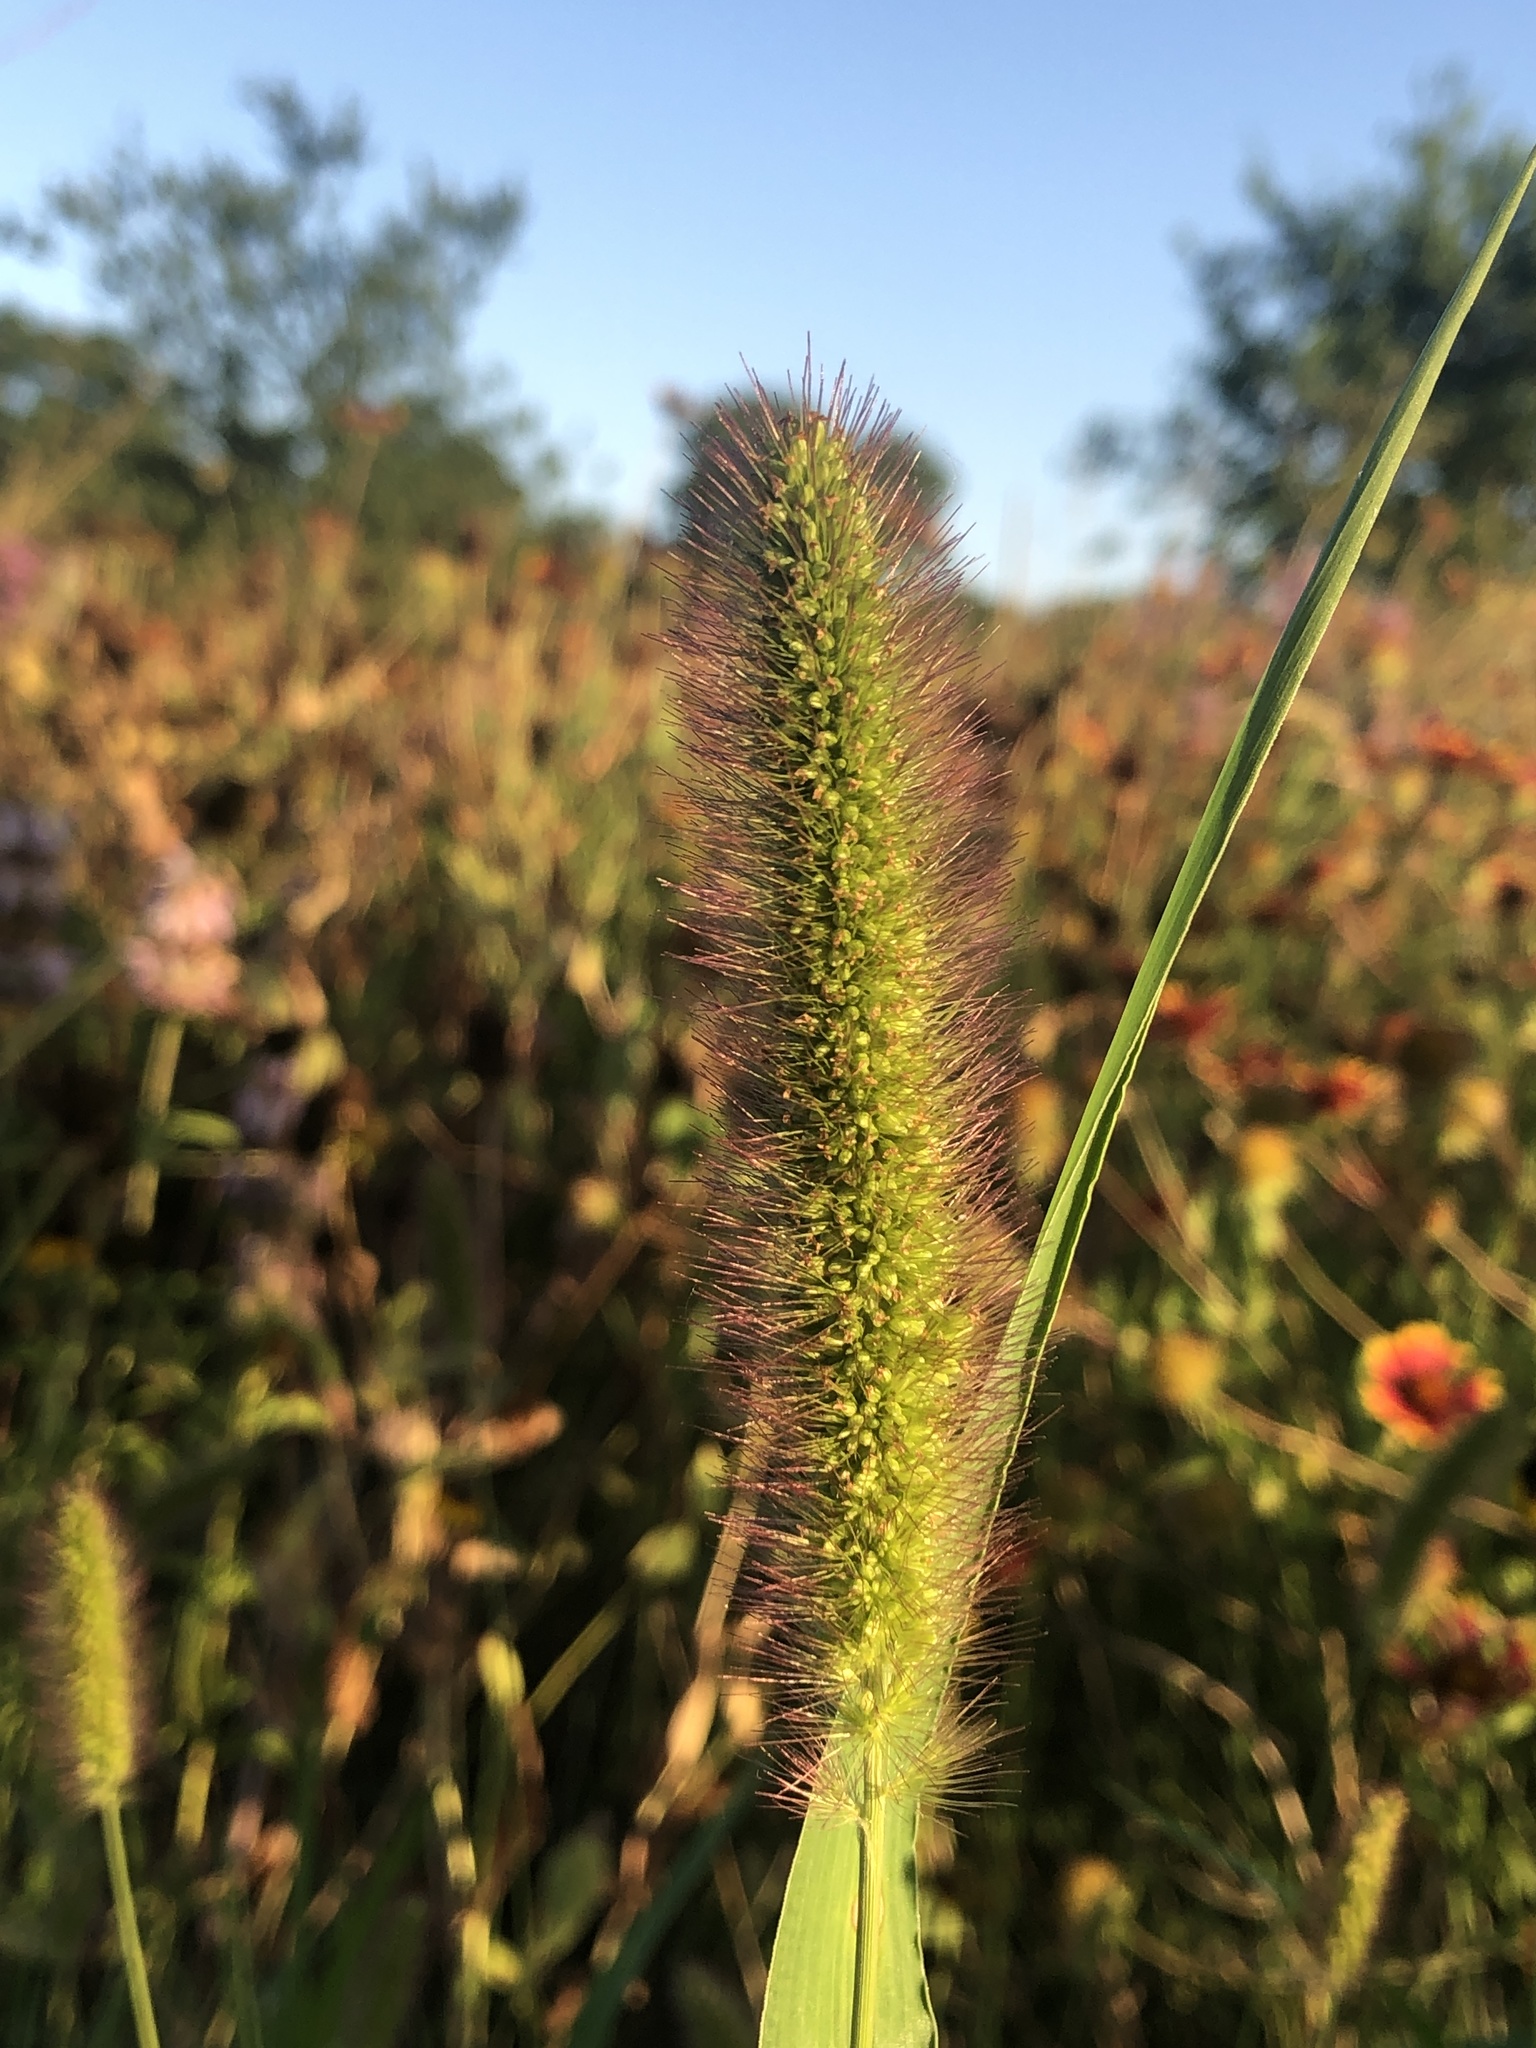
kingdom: Plantae
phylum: Tracheophyta
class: Liliopsida
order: Poales
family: Poaceae
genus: Setaria
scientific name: Setaria viridis
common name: Green bristlegrass
